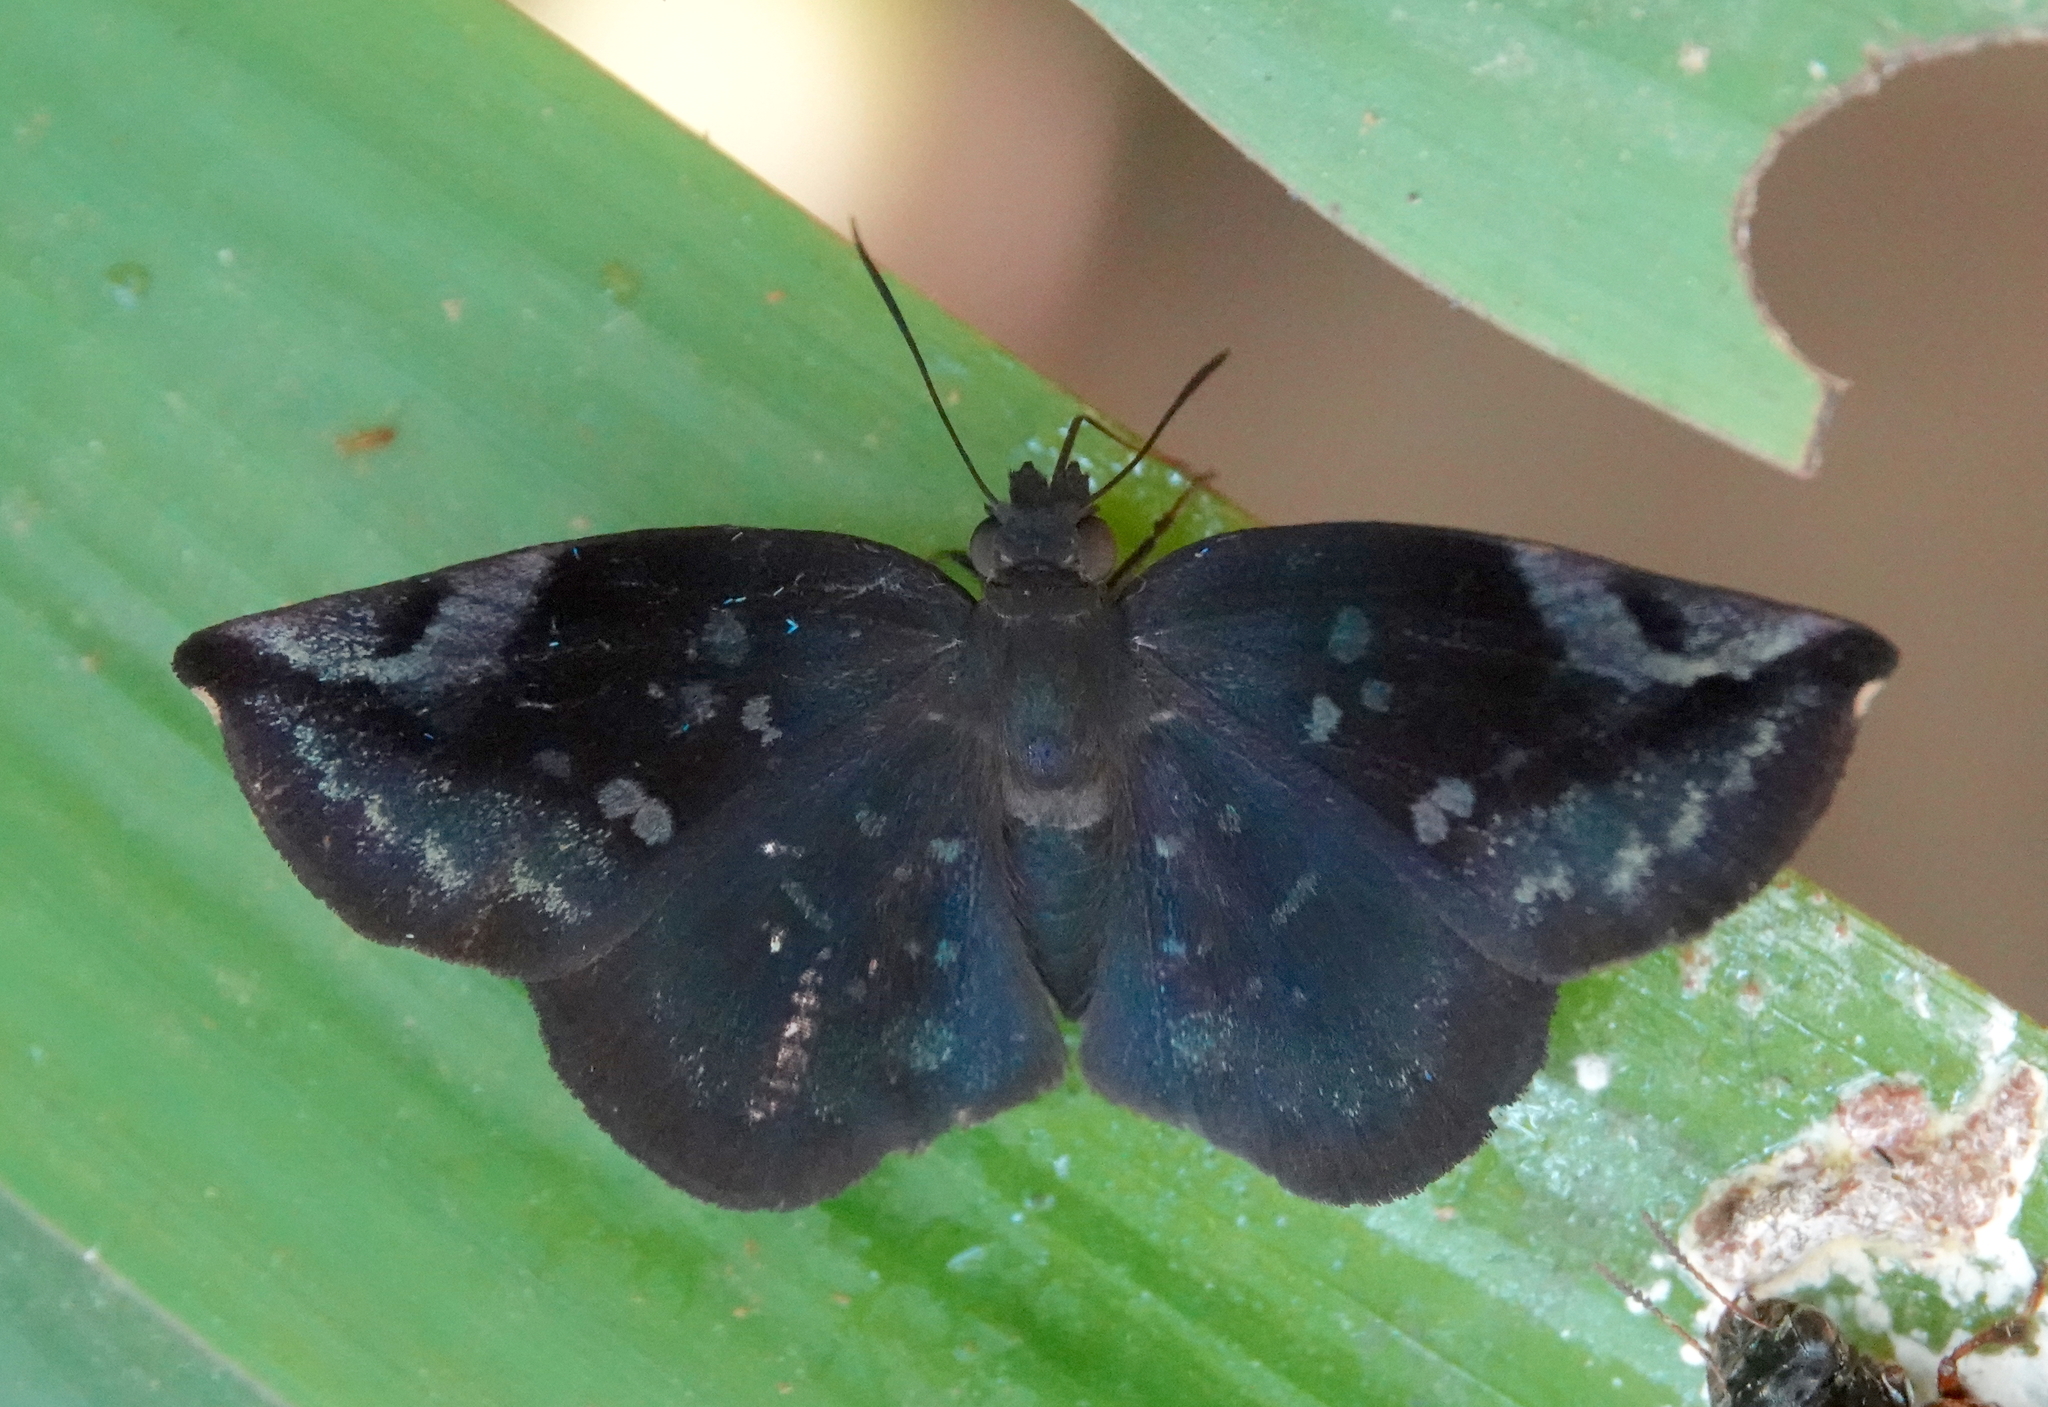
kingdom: Animalia
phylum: Arthropoda
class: Insecta
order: Lepidoptera
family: Hesperiidae
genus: Achlyodes
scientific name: Achlyodes thraso
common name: Sickle-winged skipper
